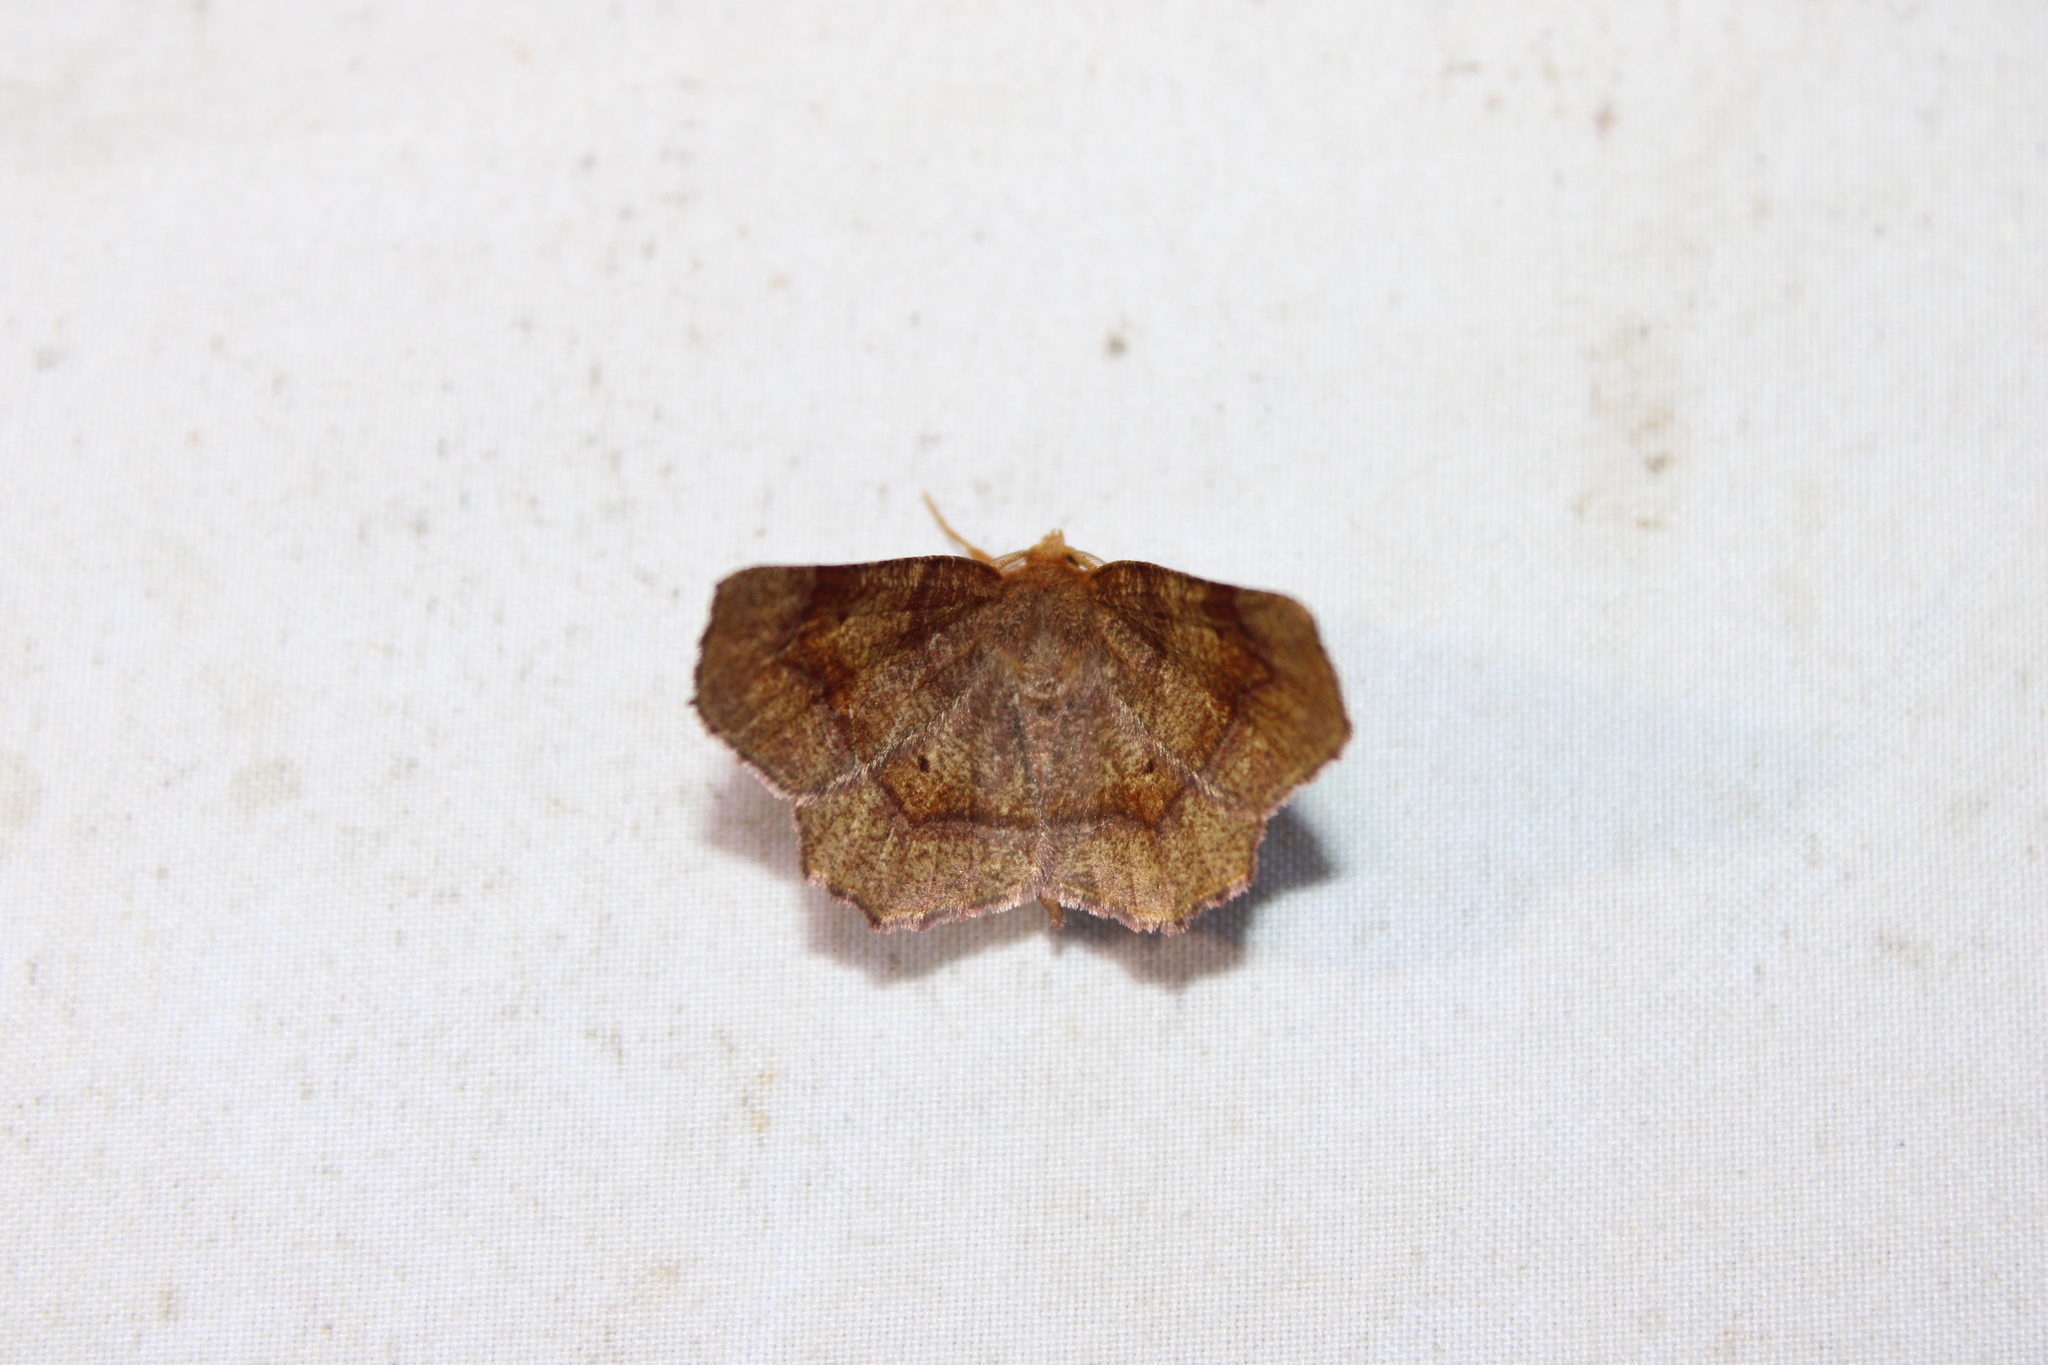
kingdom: Animalia
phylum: Arthropoda
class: Insecta
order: Lepidoptera
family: Geometridae
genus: Metarranthis
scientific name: Metarranthis hypochraria
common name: Common metarranthis
